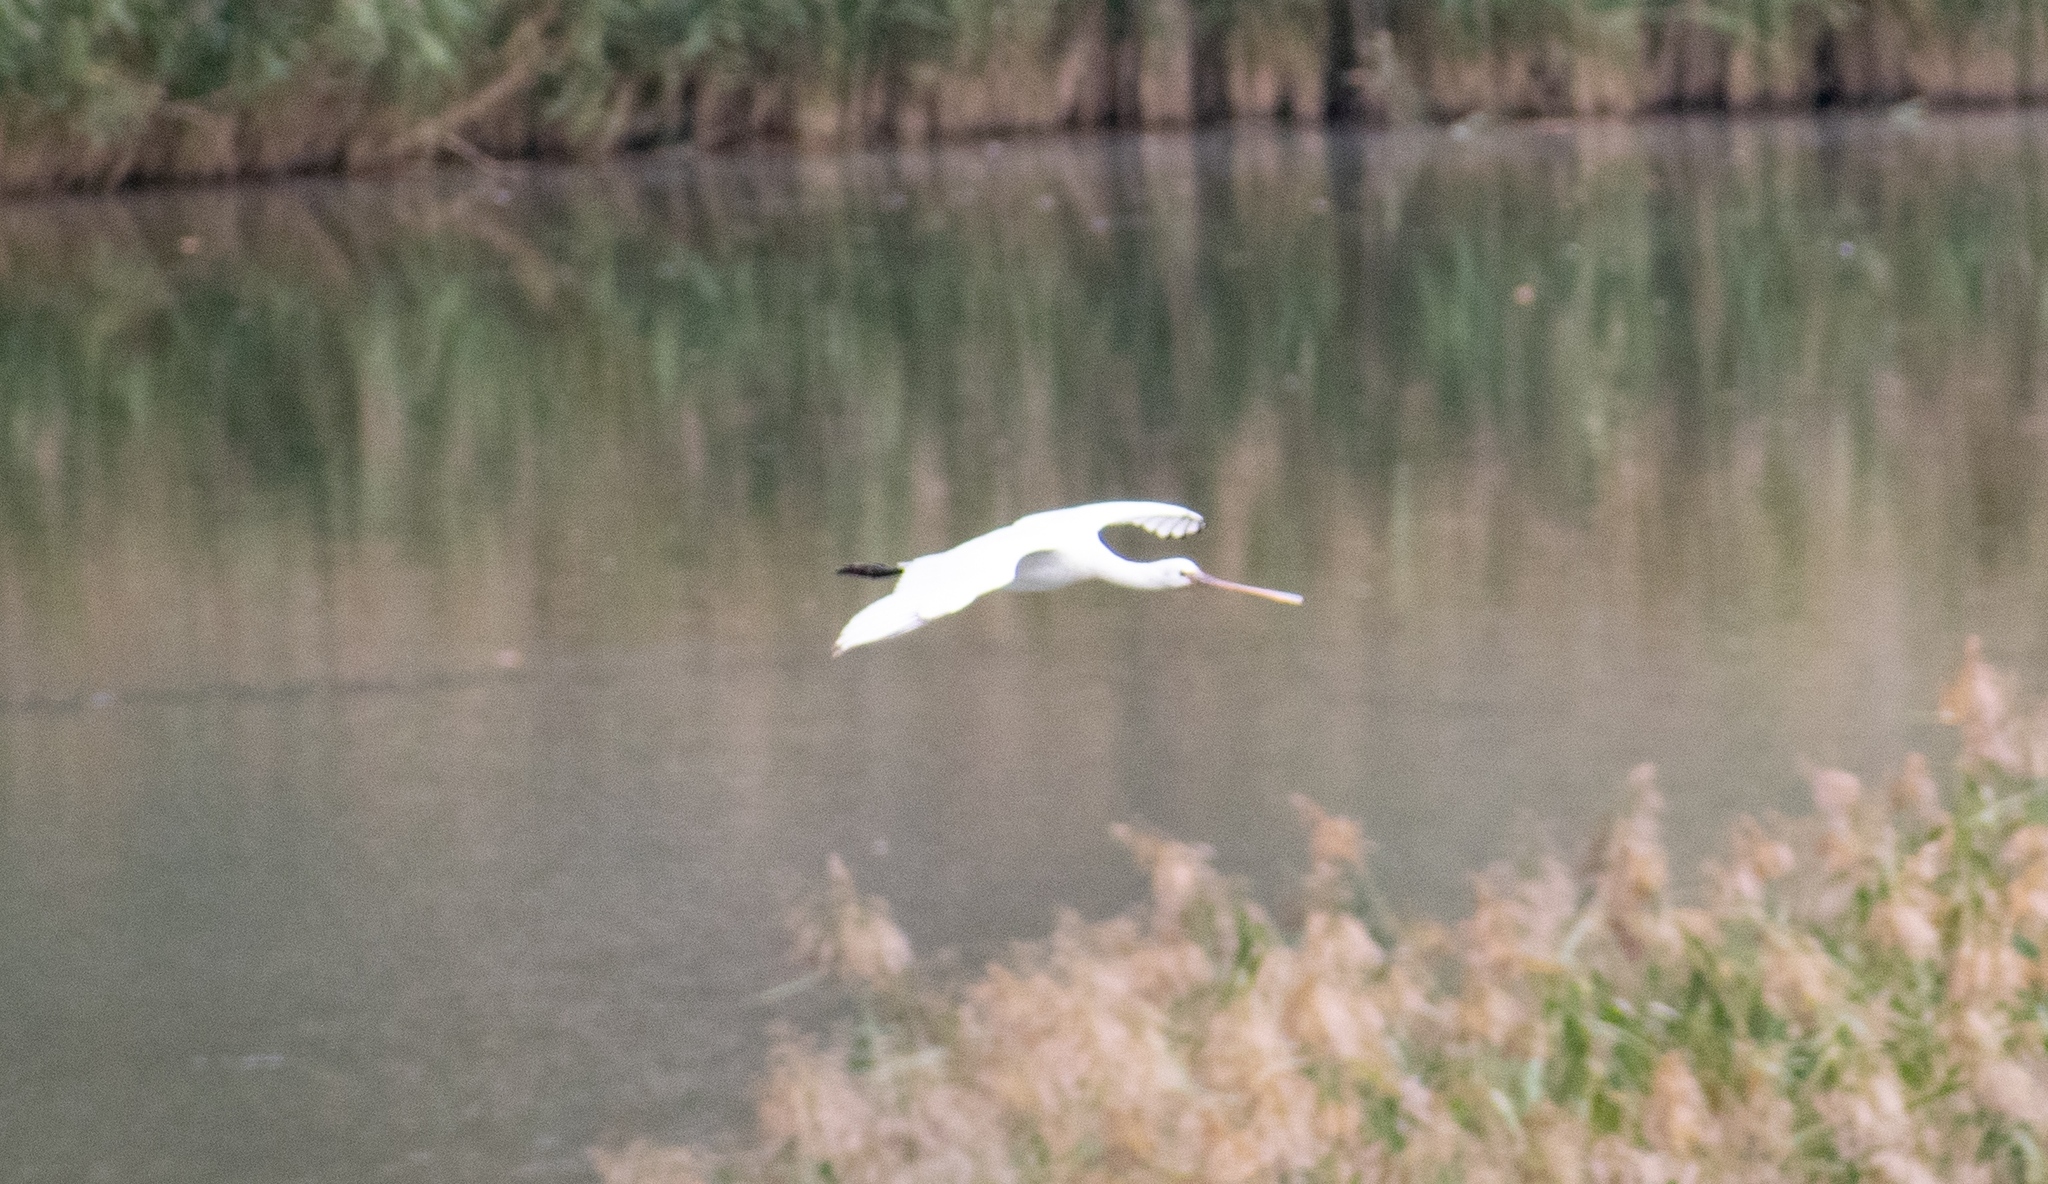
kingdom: Animalia
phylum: Chordata
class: Aves
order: Pelecaniformes
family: Threskiornithidae
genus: Platalea
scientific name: Platalea leucorodia
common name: Eurasian spoonbill
